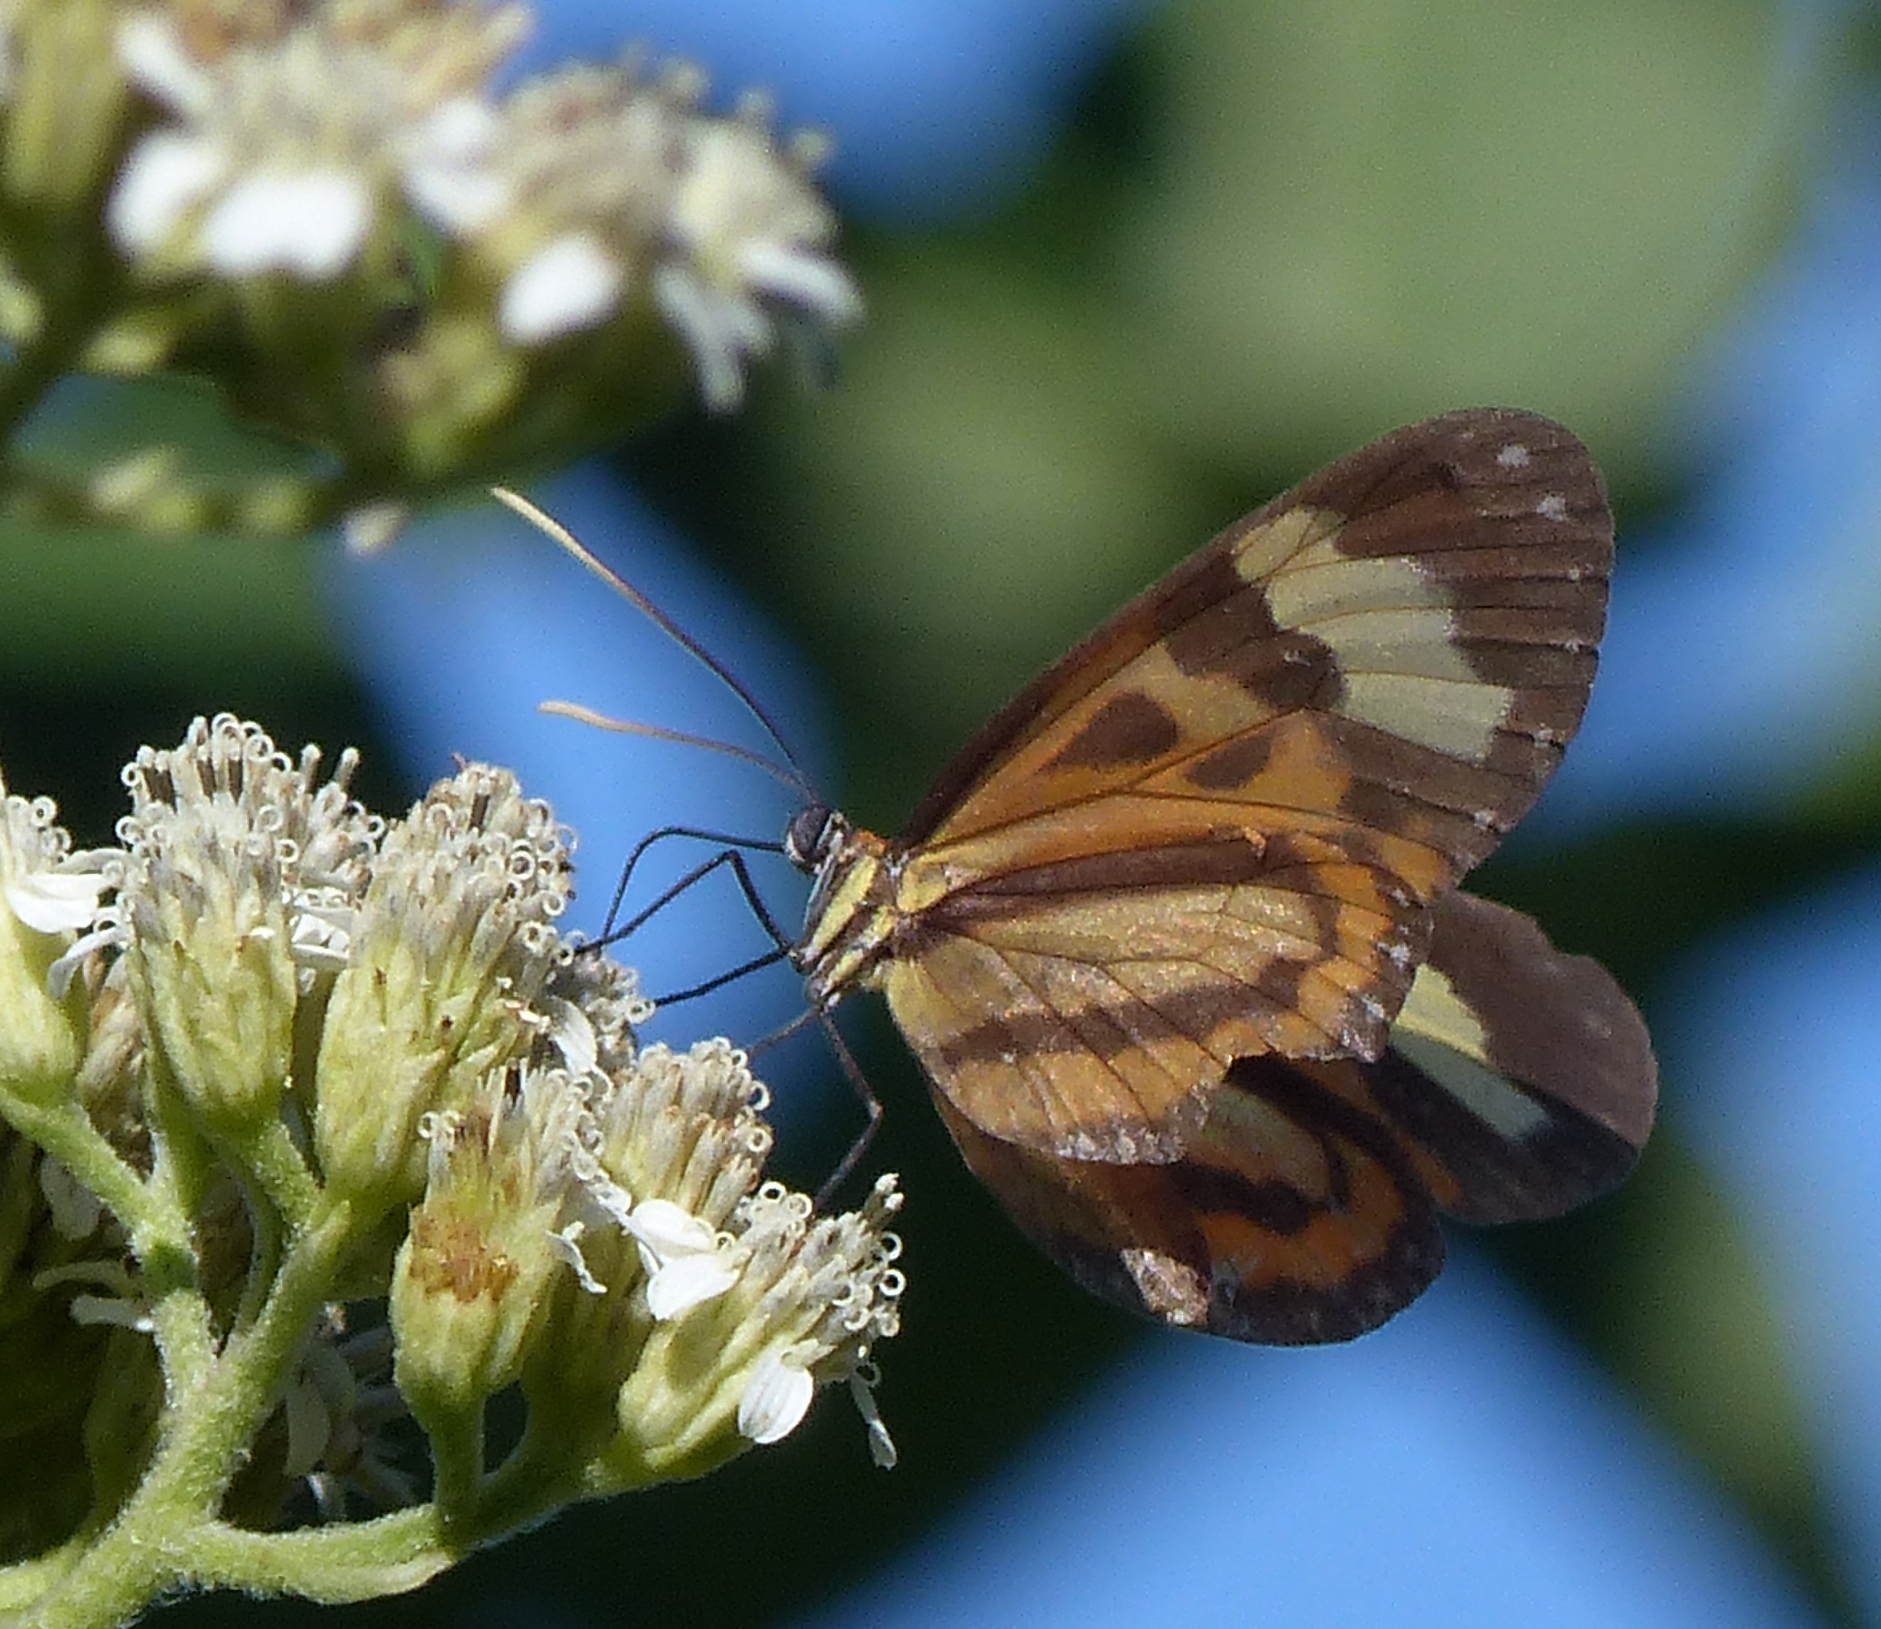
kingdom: Animalia
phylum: Arthropoda
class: Insecta
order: Lepidoptera
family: Nymphalidae
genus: Hypothyris
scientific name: Hypothyris euclea
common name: Euclea tigerwing
